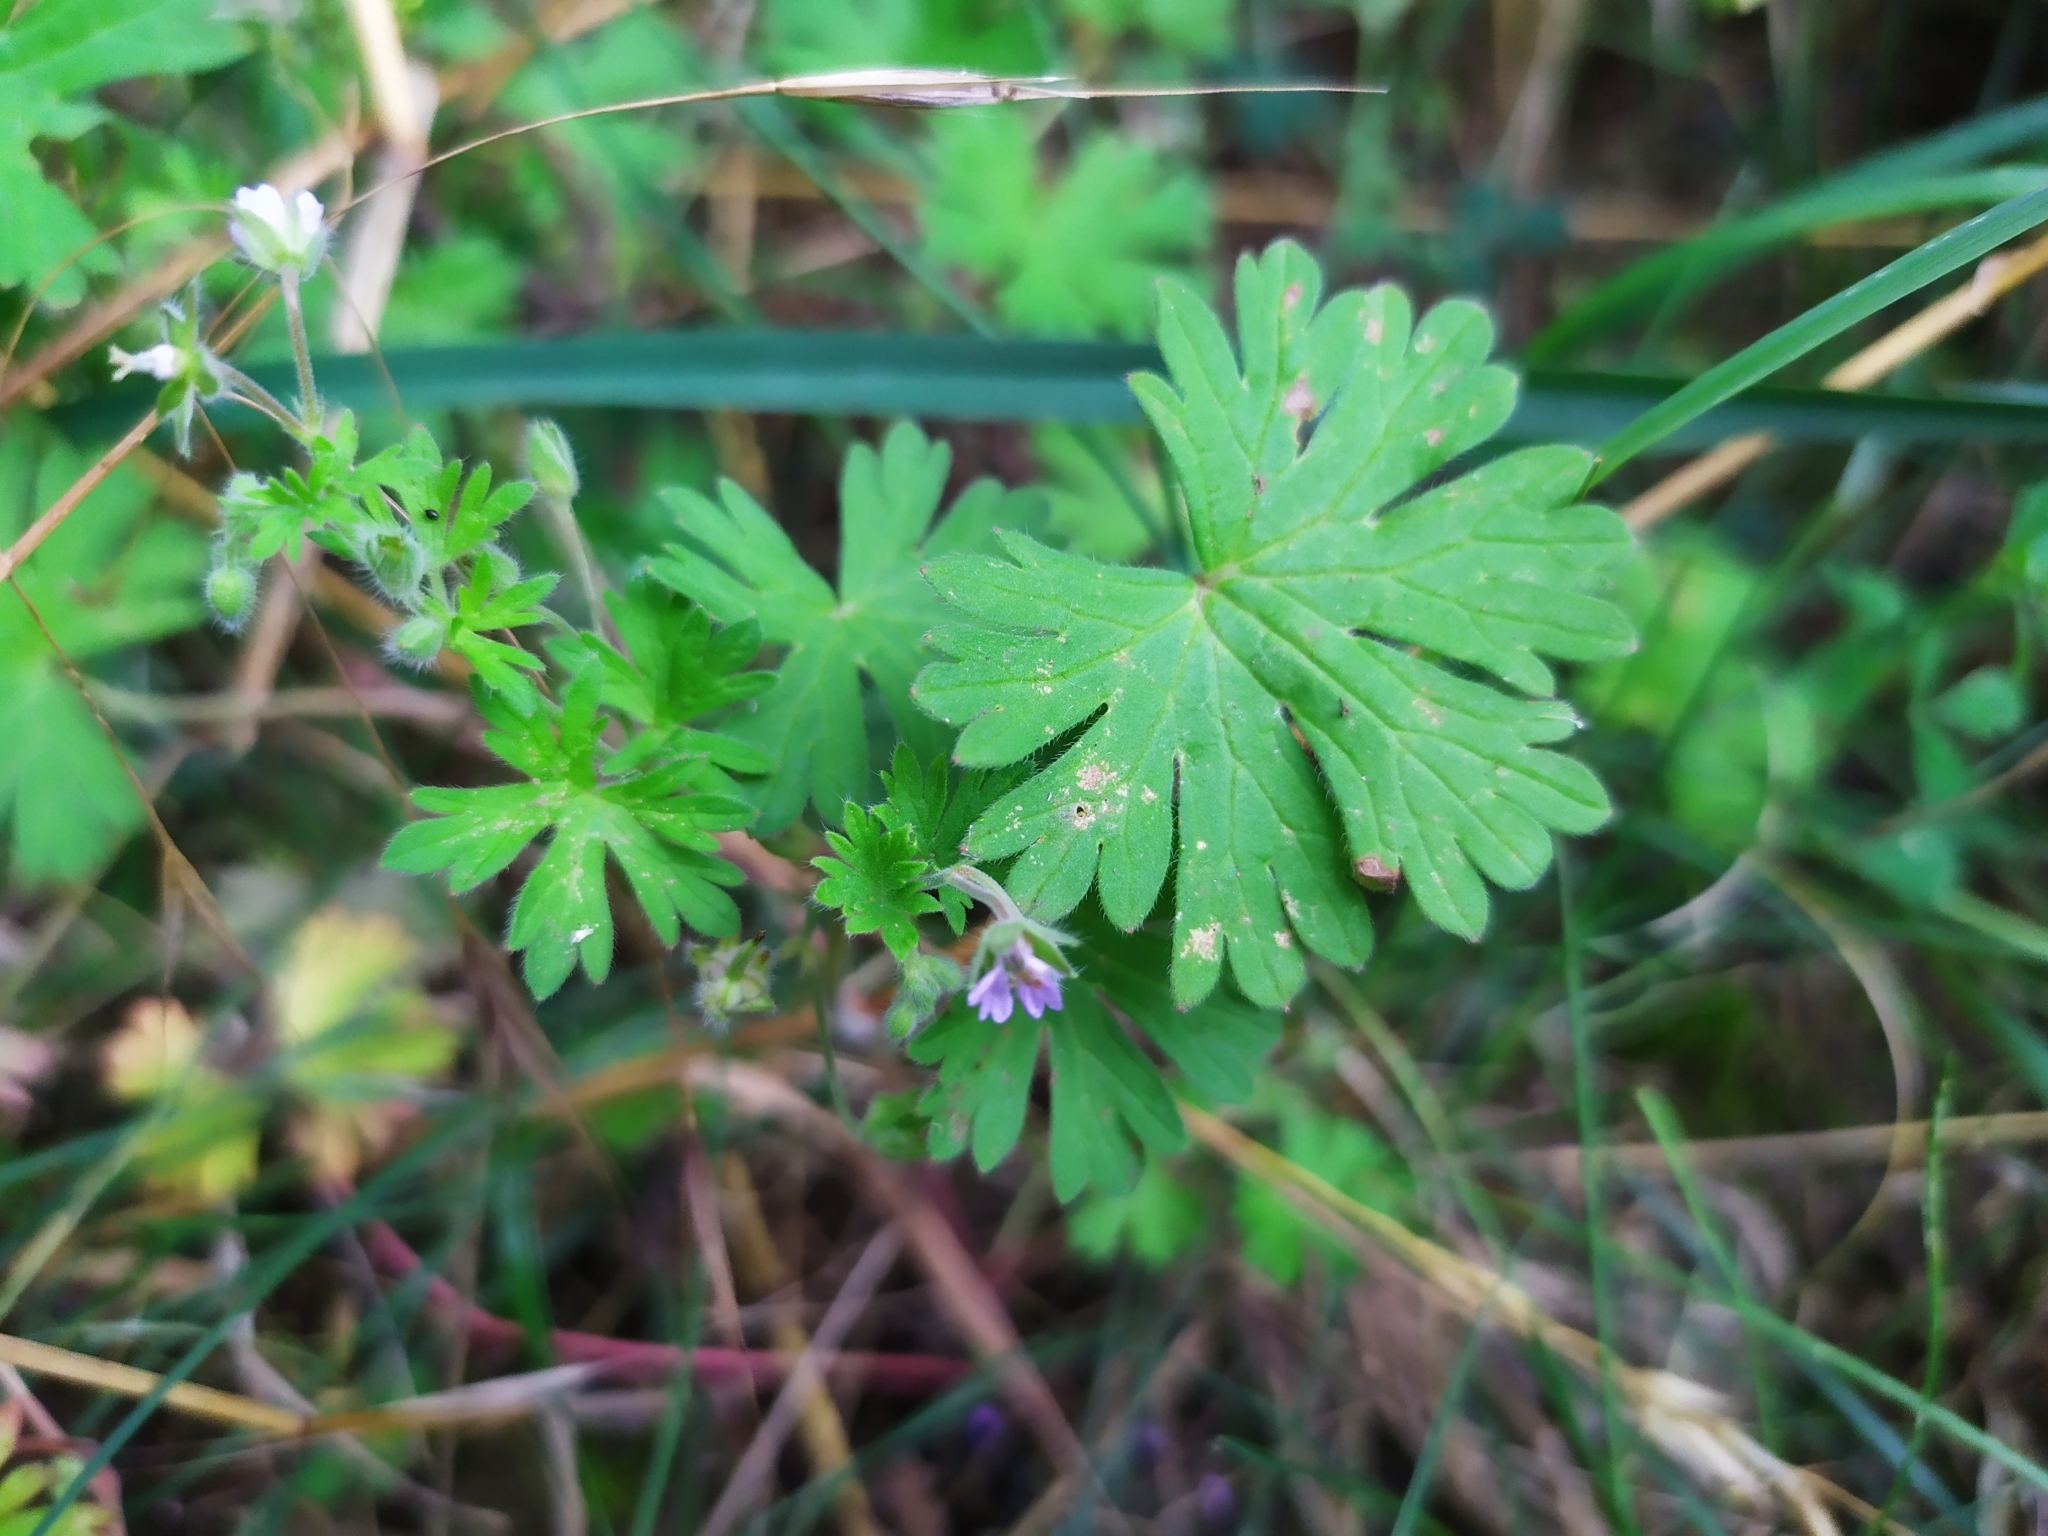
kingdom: Plantae
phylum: Tracheophyta
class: Magnoliopsida
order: Geraniales
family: Geraniaceae
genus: Geranium
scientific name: Geranium pusillum
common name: Small geranium
